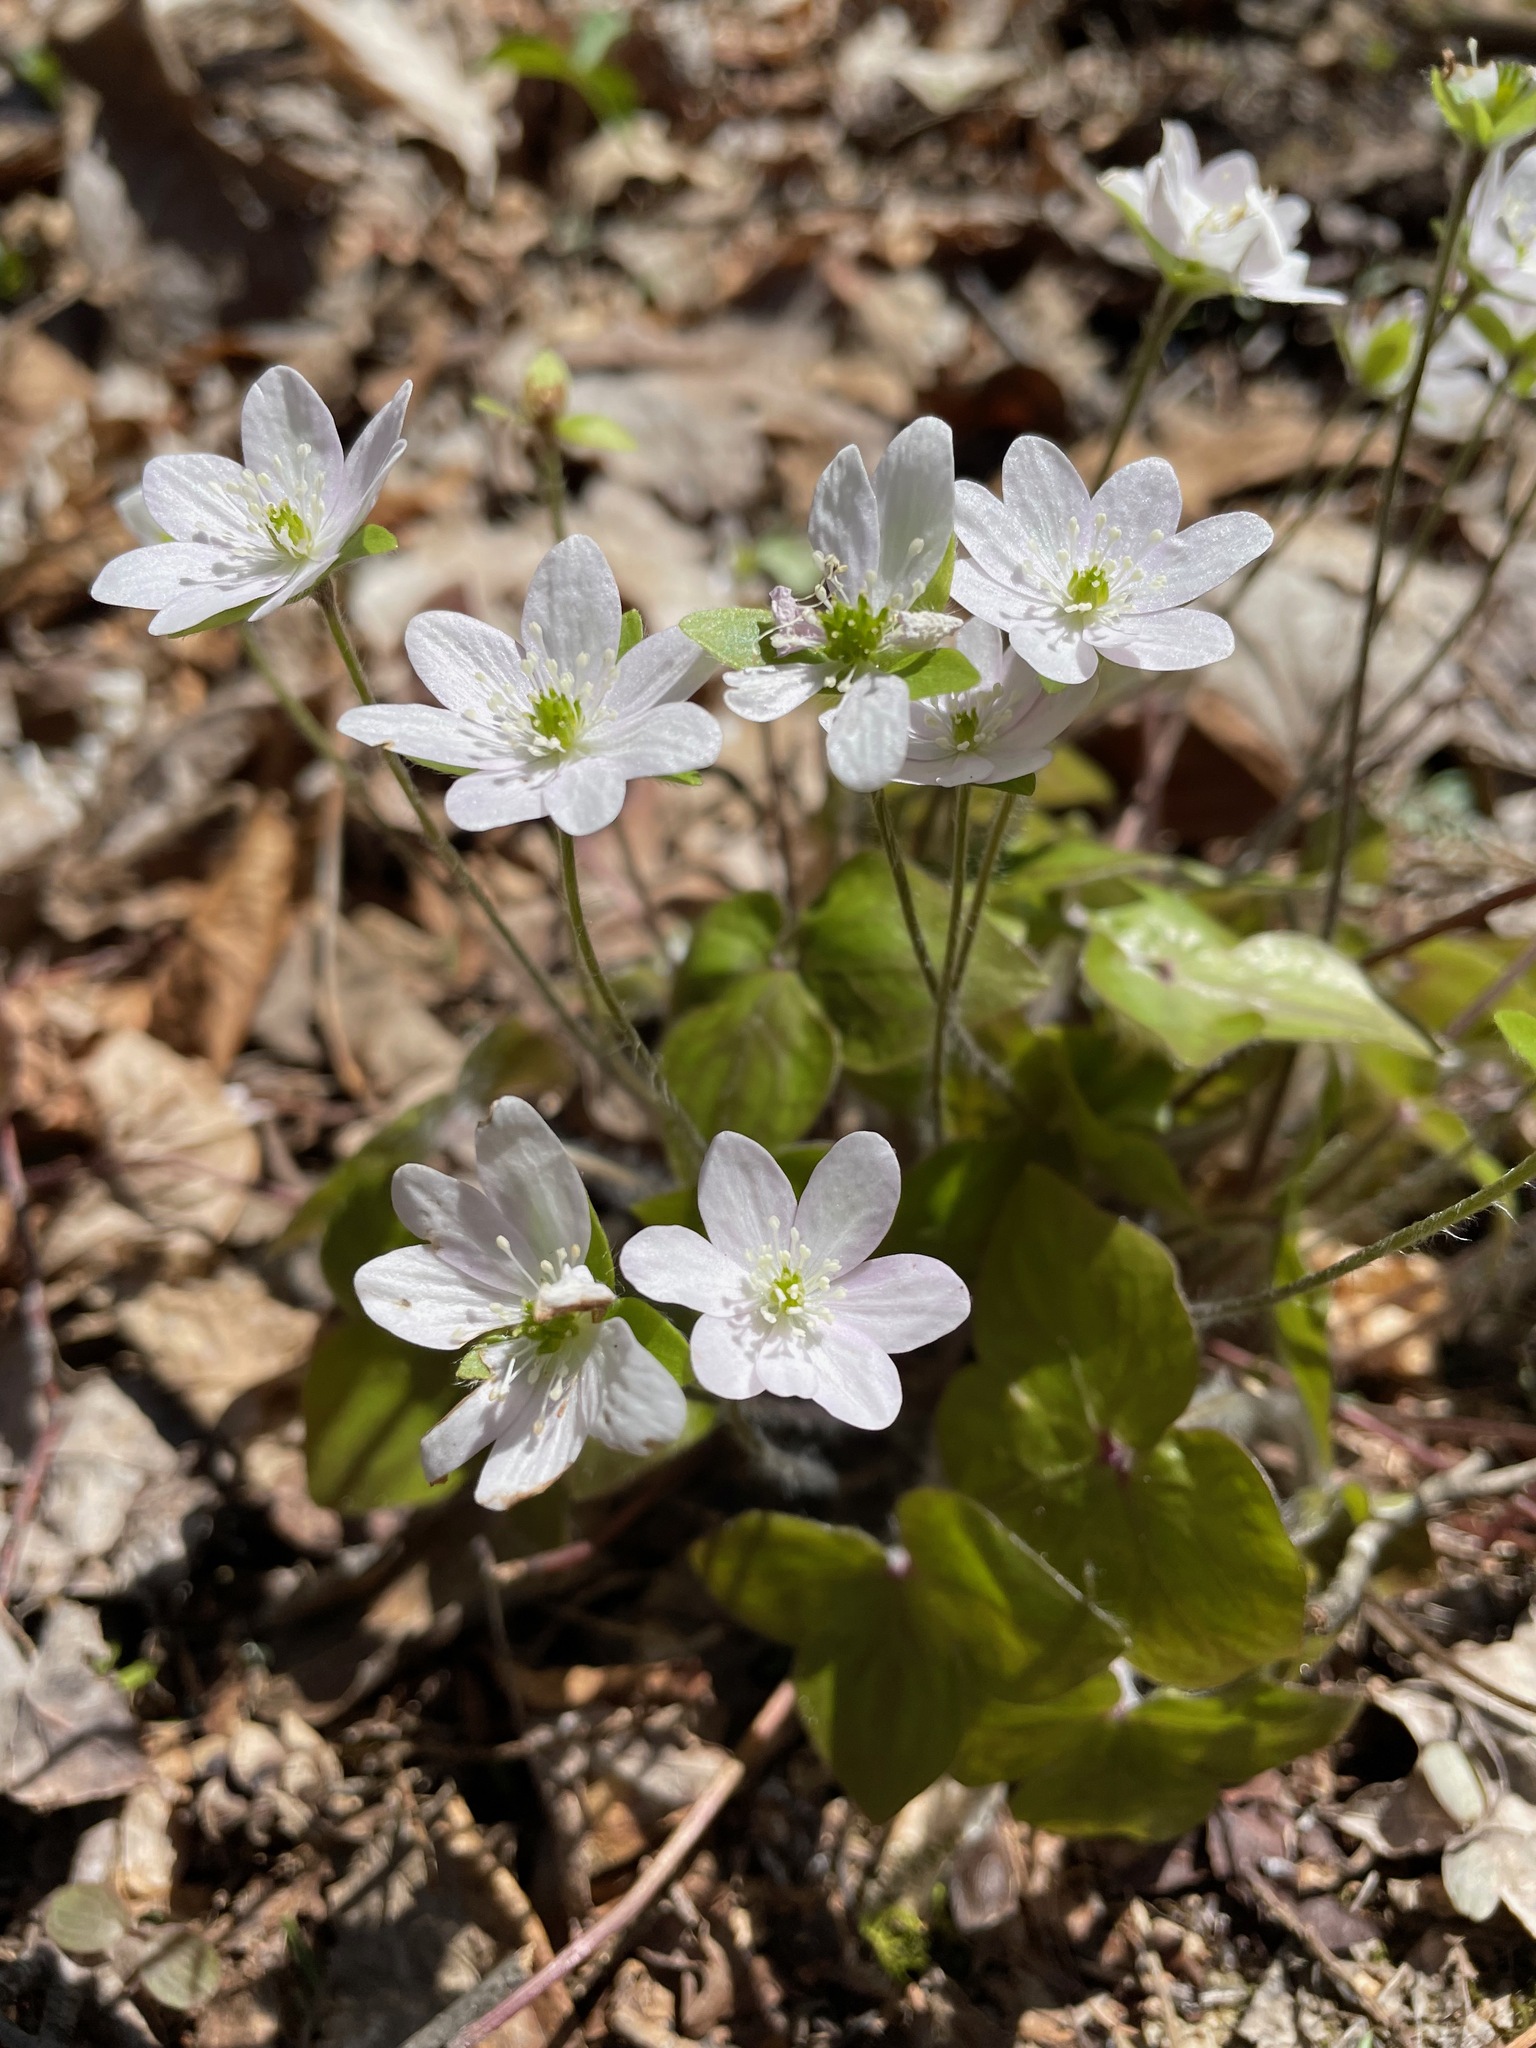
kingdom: Plantae
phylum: Tracheophyta
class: Magnoliopsida
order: Ranunculales
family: Ranunculaceae
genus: Hepatica
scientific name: Hepatica acutiloba
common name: Sharp-lobed hepatica
